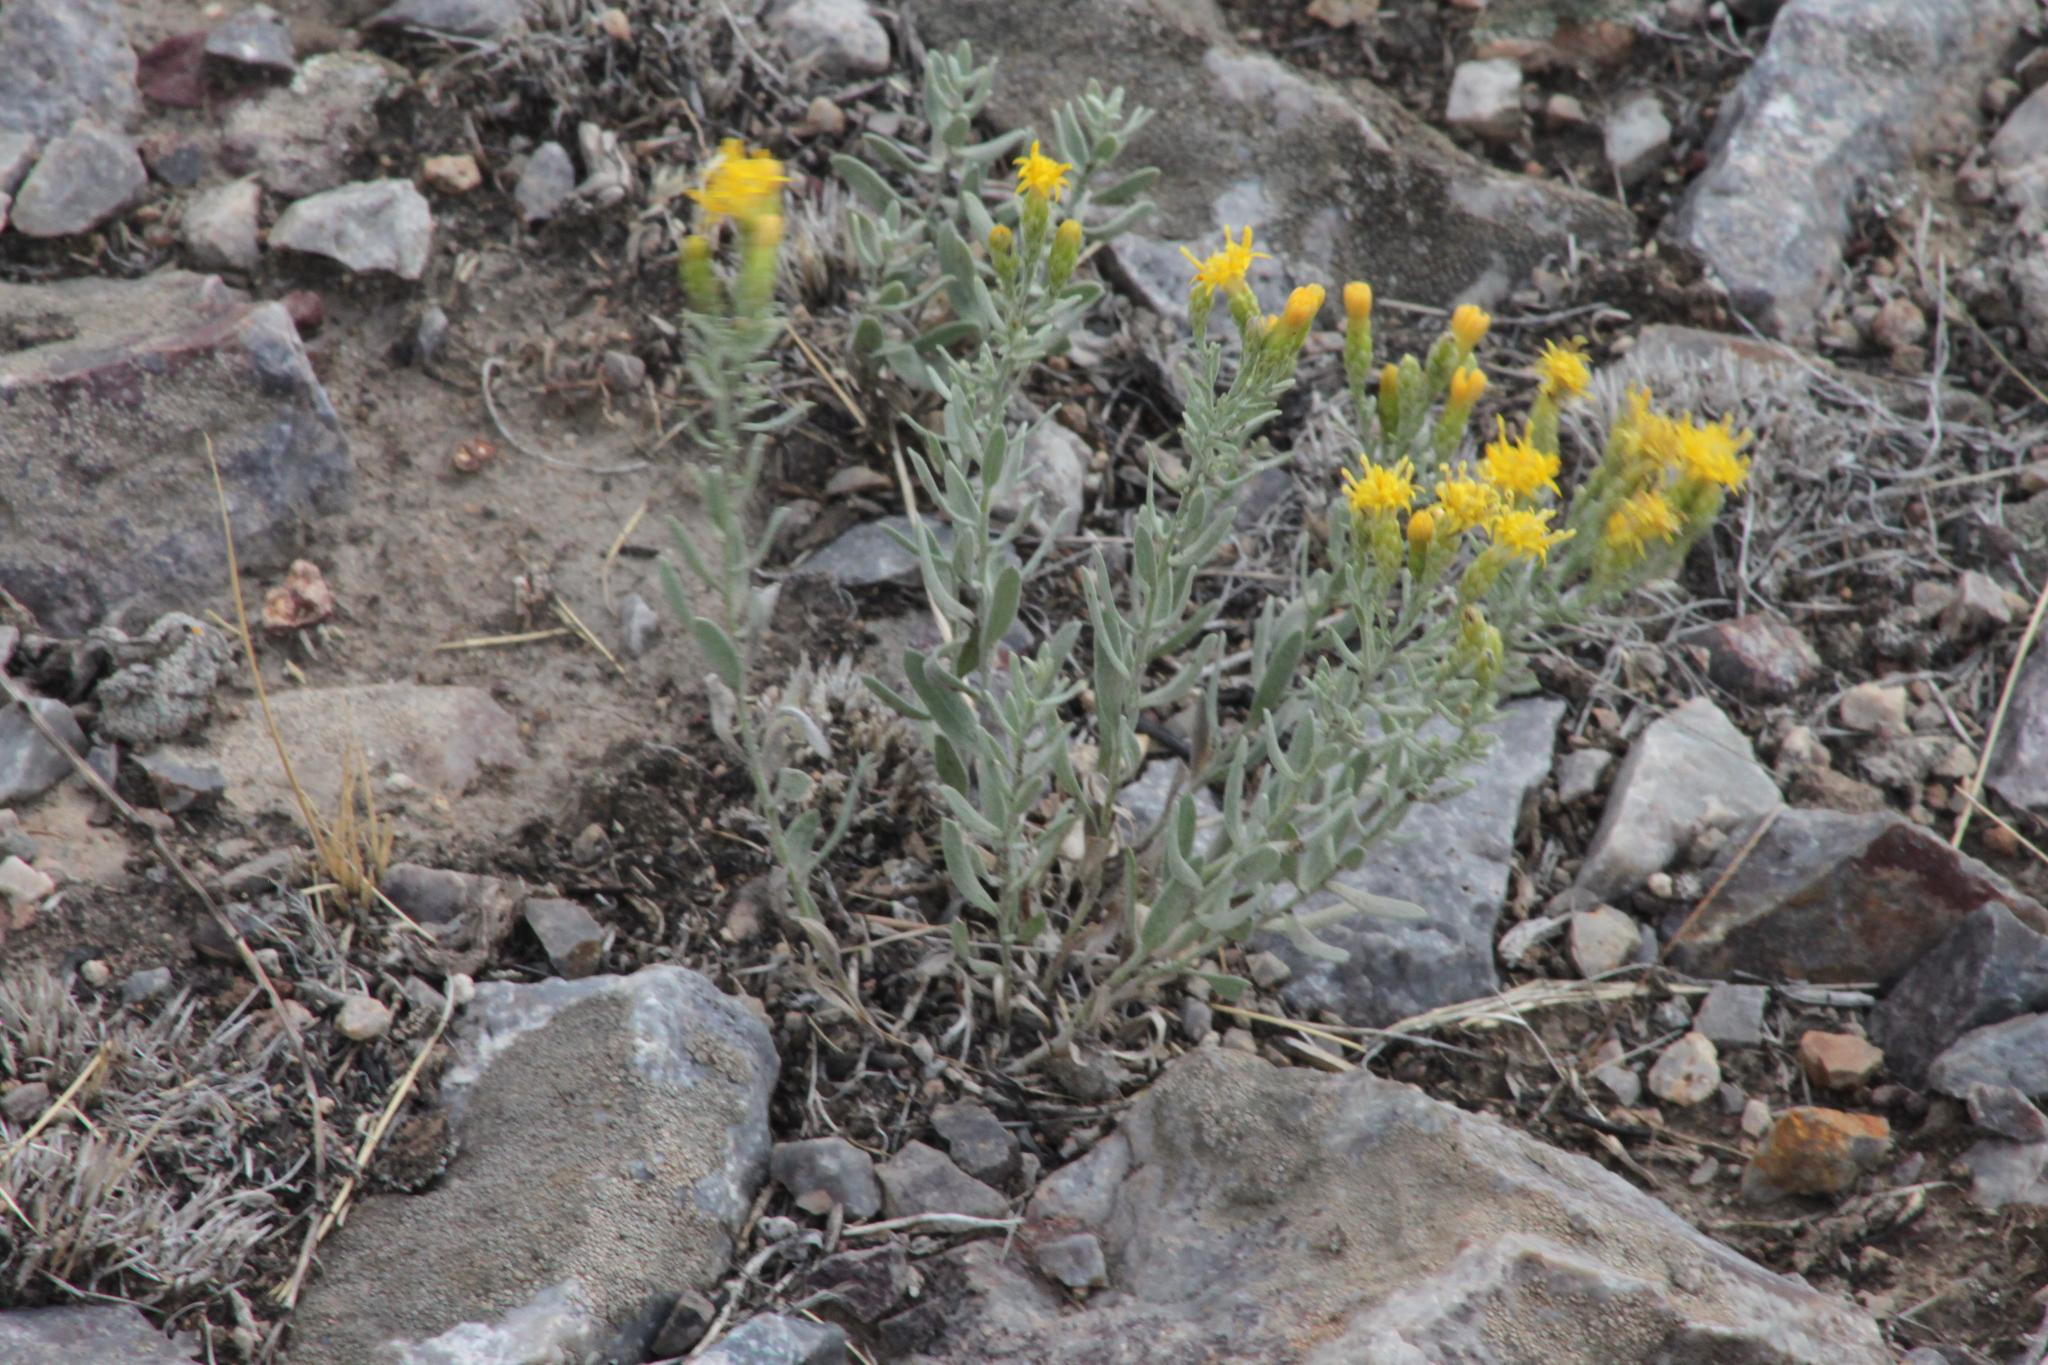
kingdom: Plantae
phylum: Tracheophyta
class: Magnoliopsida
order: Asterales
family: Asteraceae
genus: Galatella
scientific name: Galatella villosa
